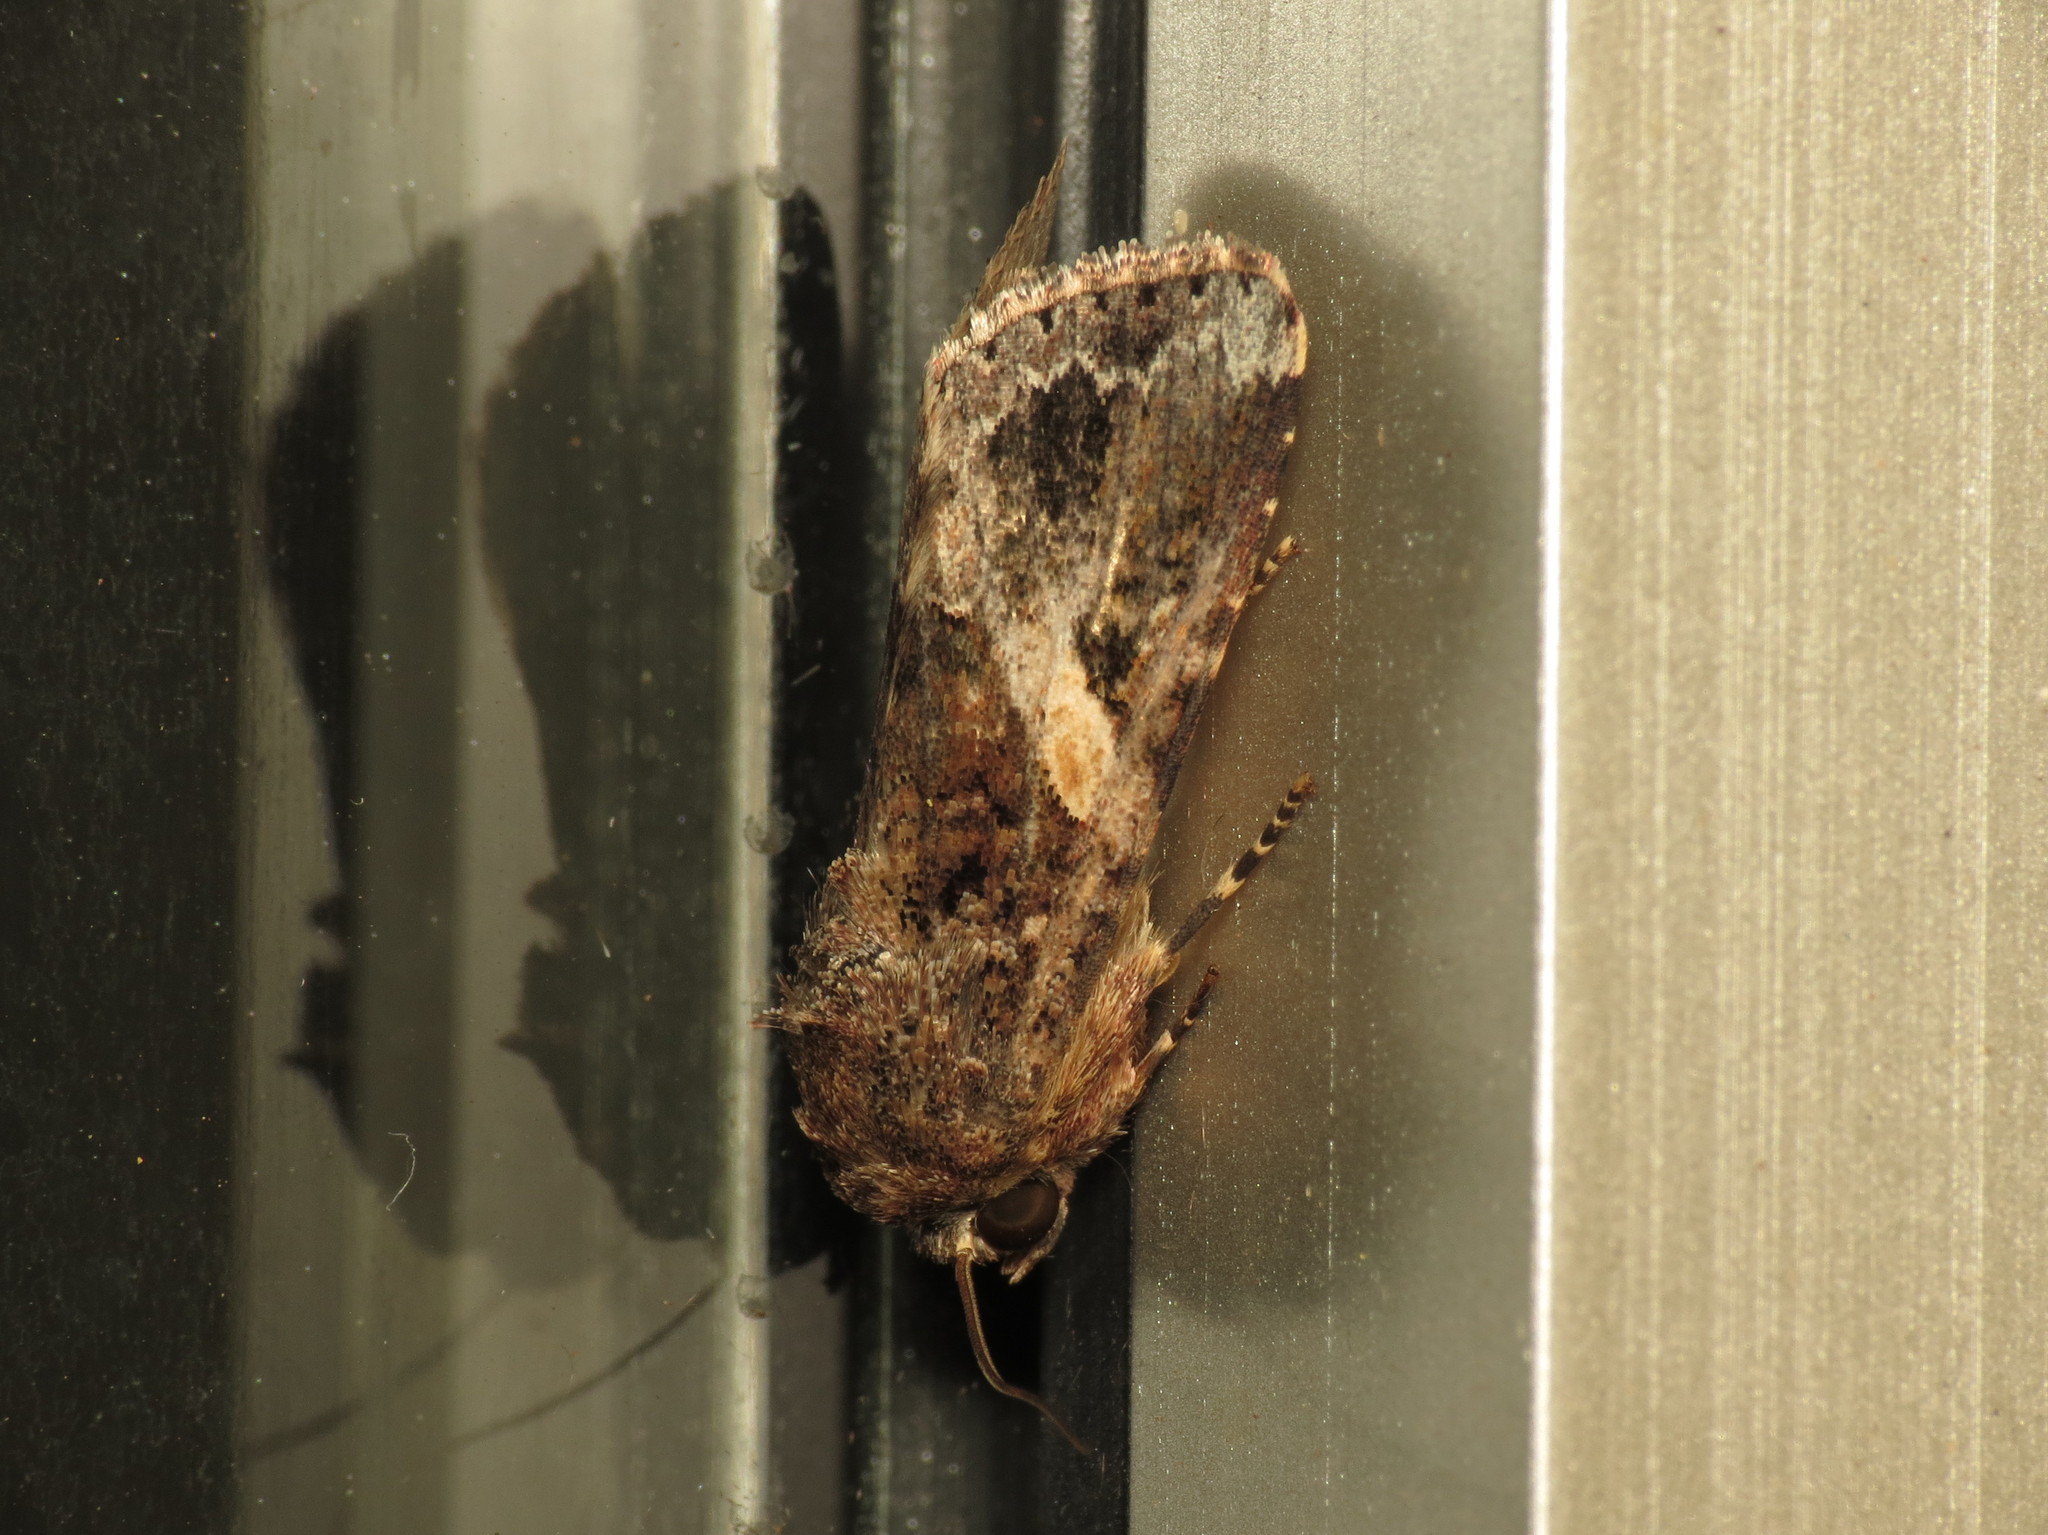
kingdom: Animalia
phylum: Arthropoda
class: Insecta
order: Lepidoptera
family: Noctuidae
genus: Spodoptera
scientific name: Spodoptera mauritia
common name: Lawn armyworm
